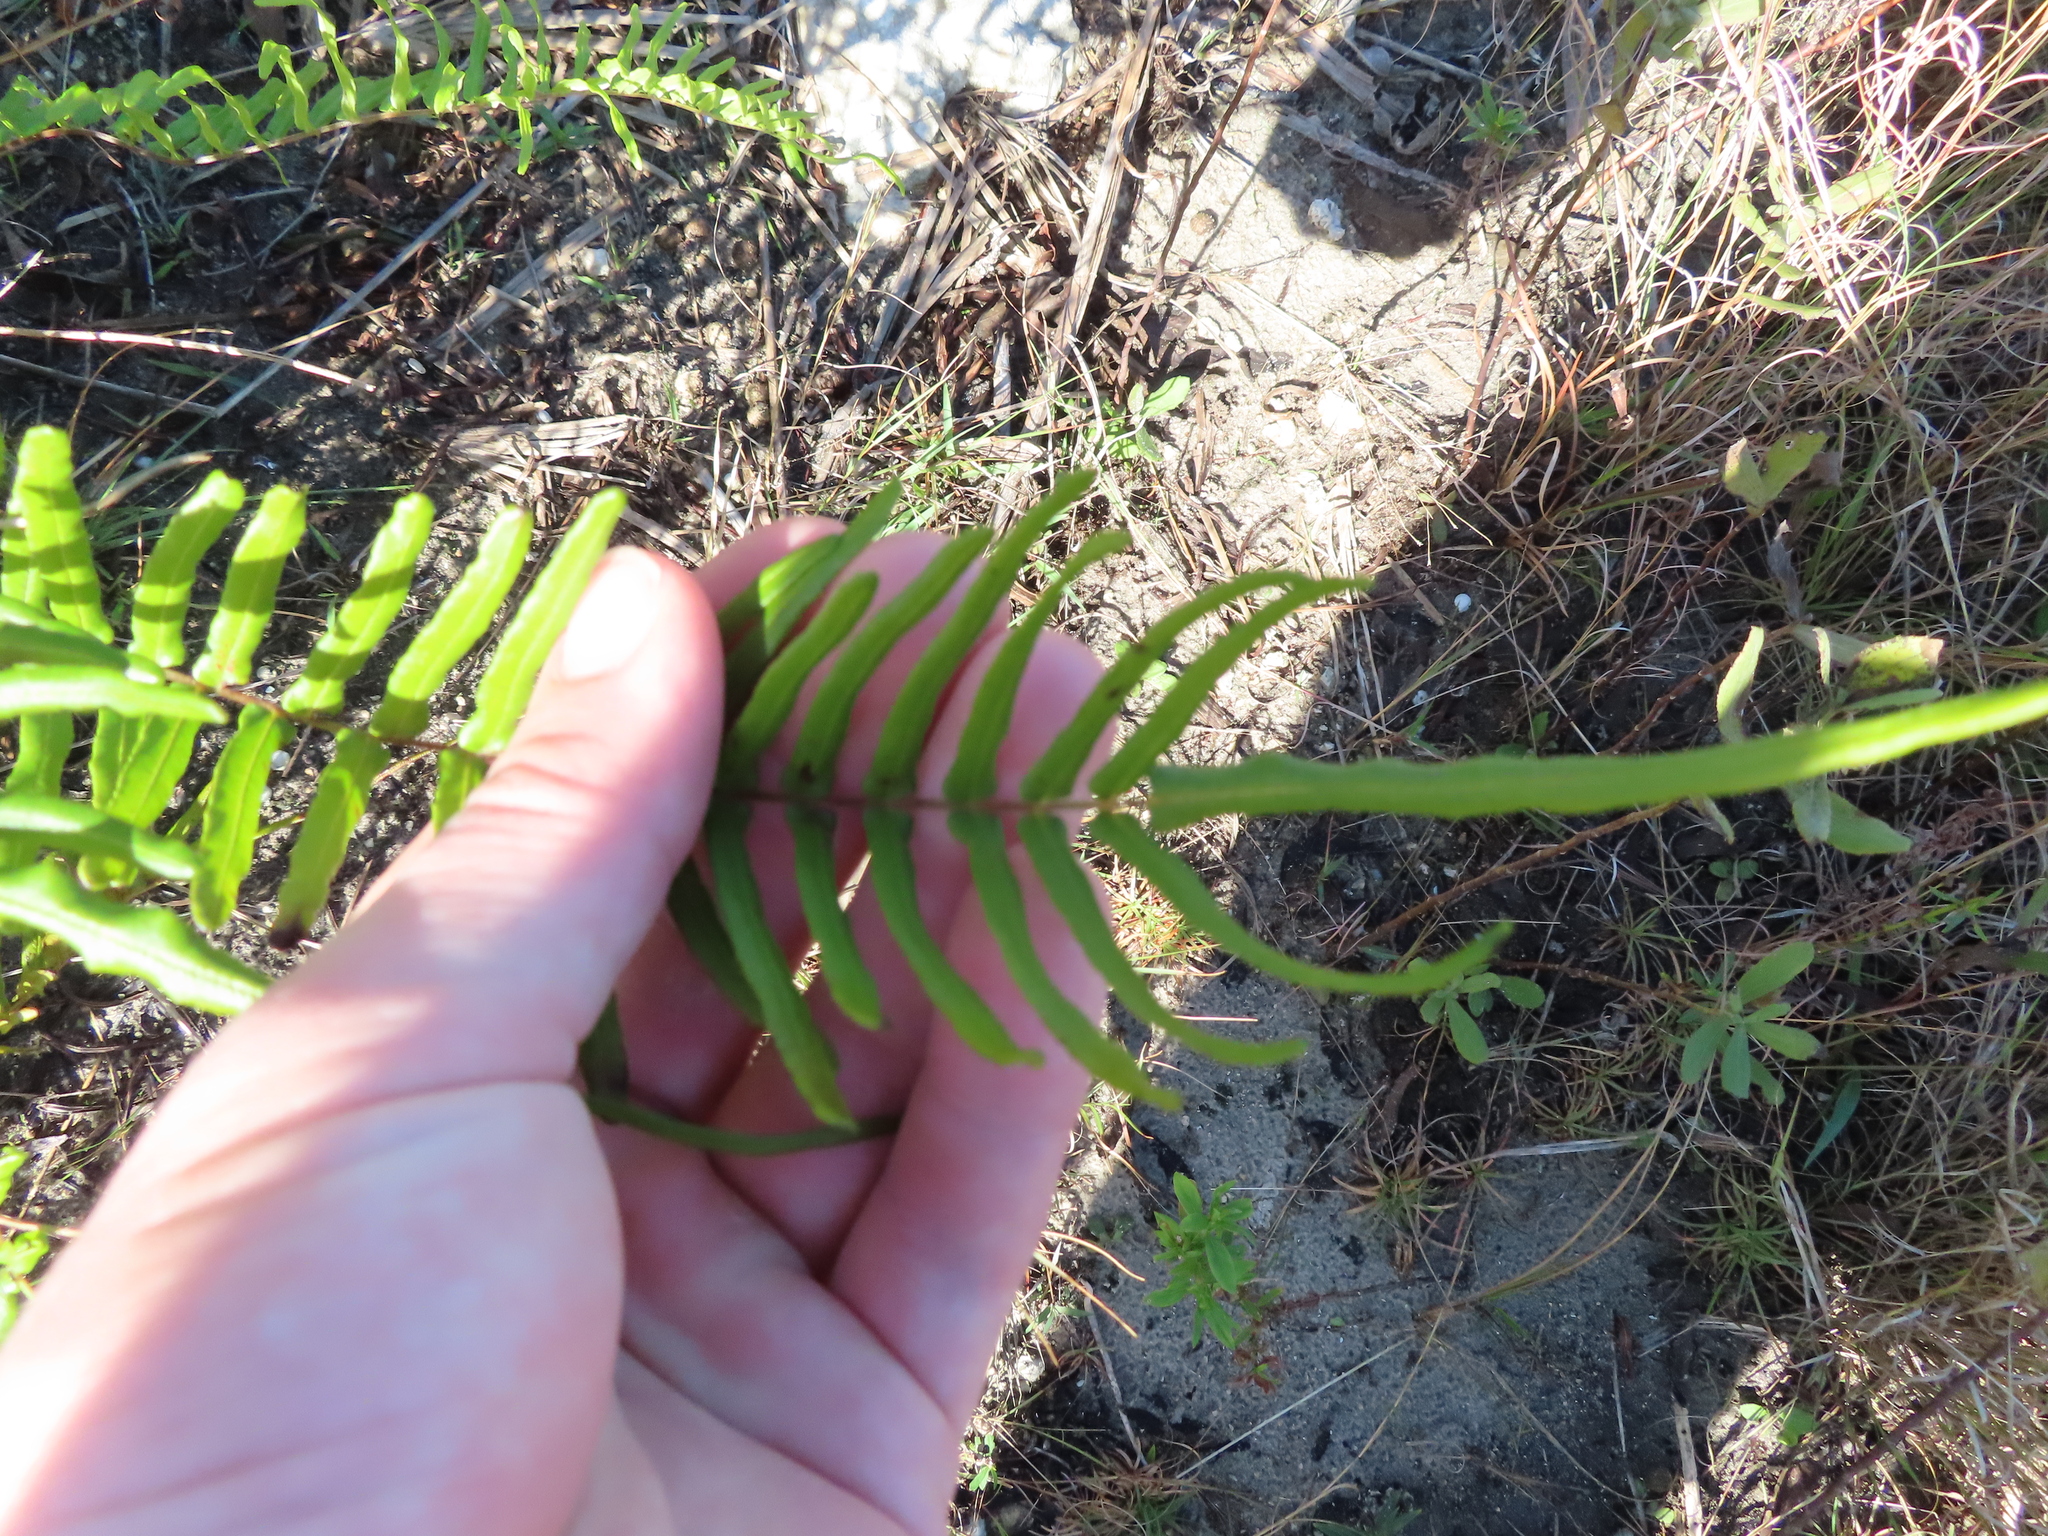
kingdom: Plantae
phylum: Tracheophyta
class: Polypodiopsida
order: Polypodiales
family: Pteridaceae
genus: Pteris
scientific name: Pteris bahamensis
